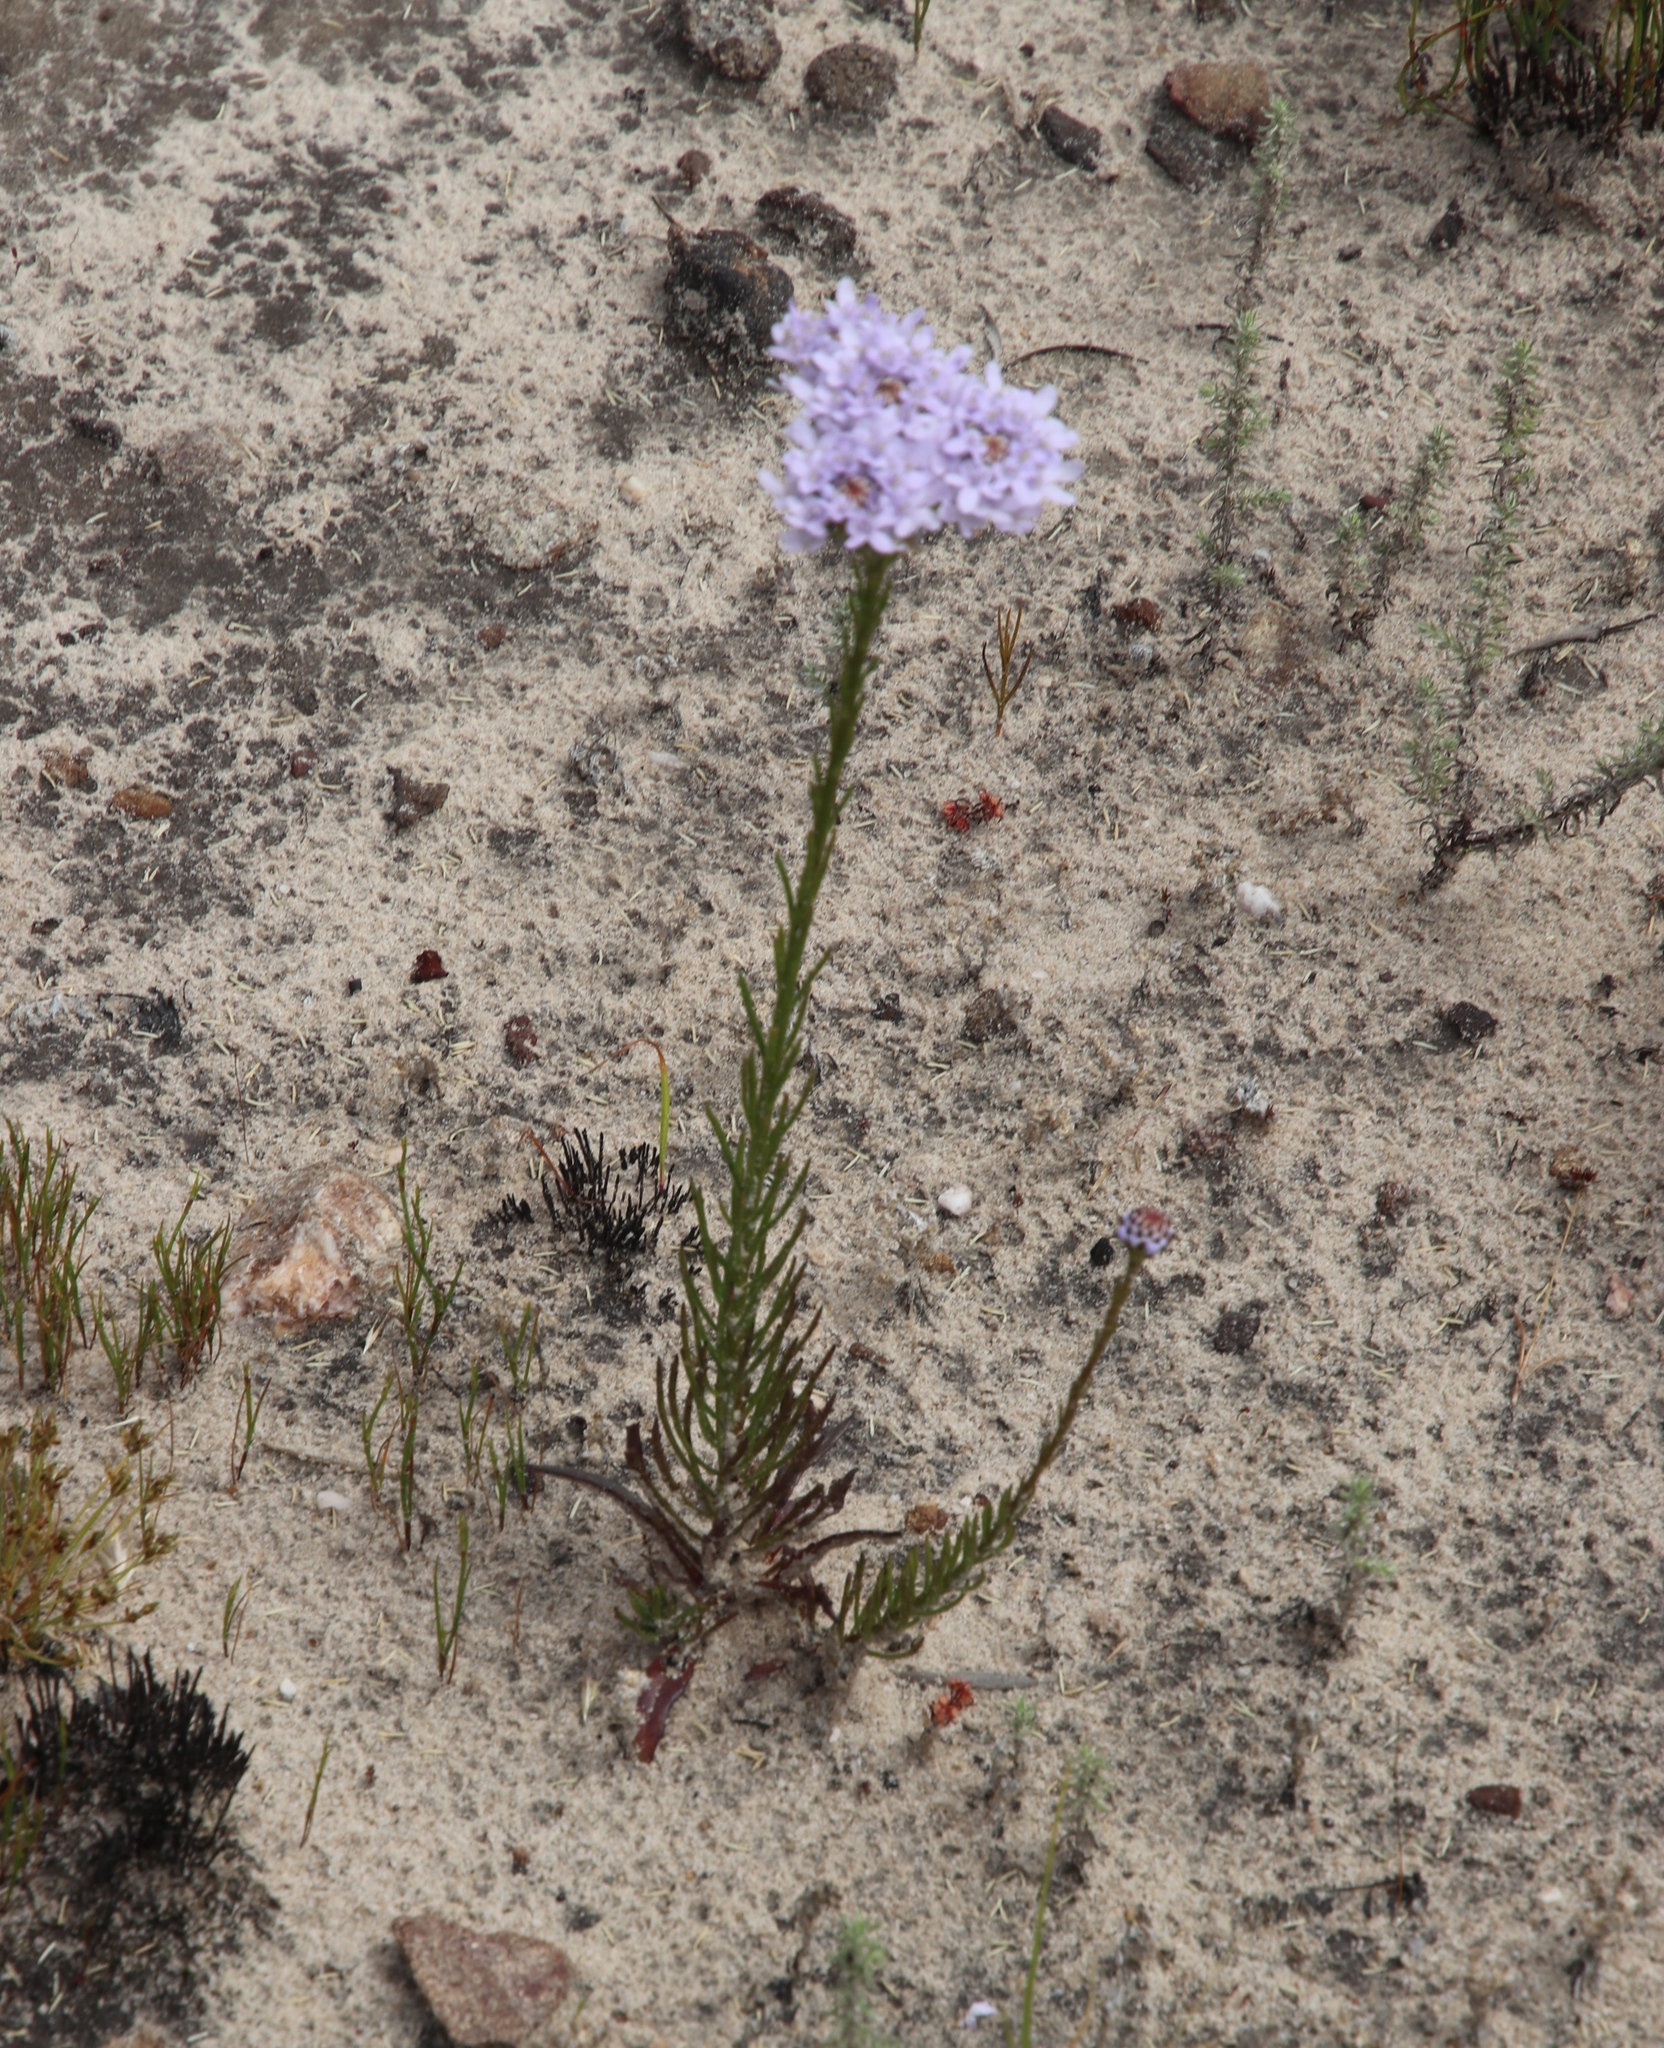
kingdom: Plantae
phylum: Tracheophyta
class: Magnoliopsida
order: Lamiales
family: Scrophulariaceae
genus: Pseudoselago
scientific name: Pseudoselago spuria
